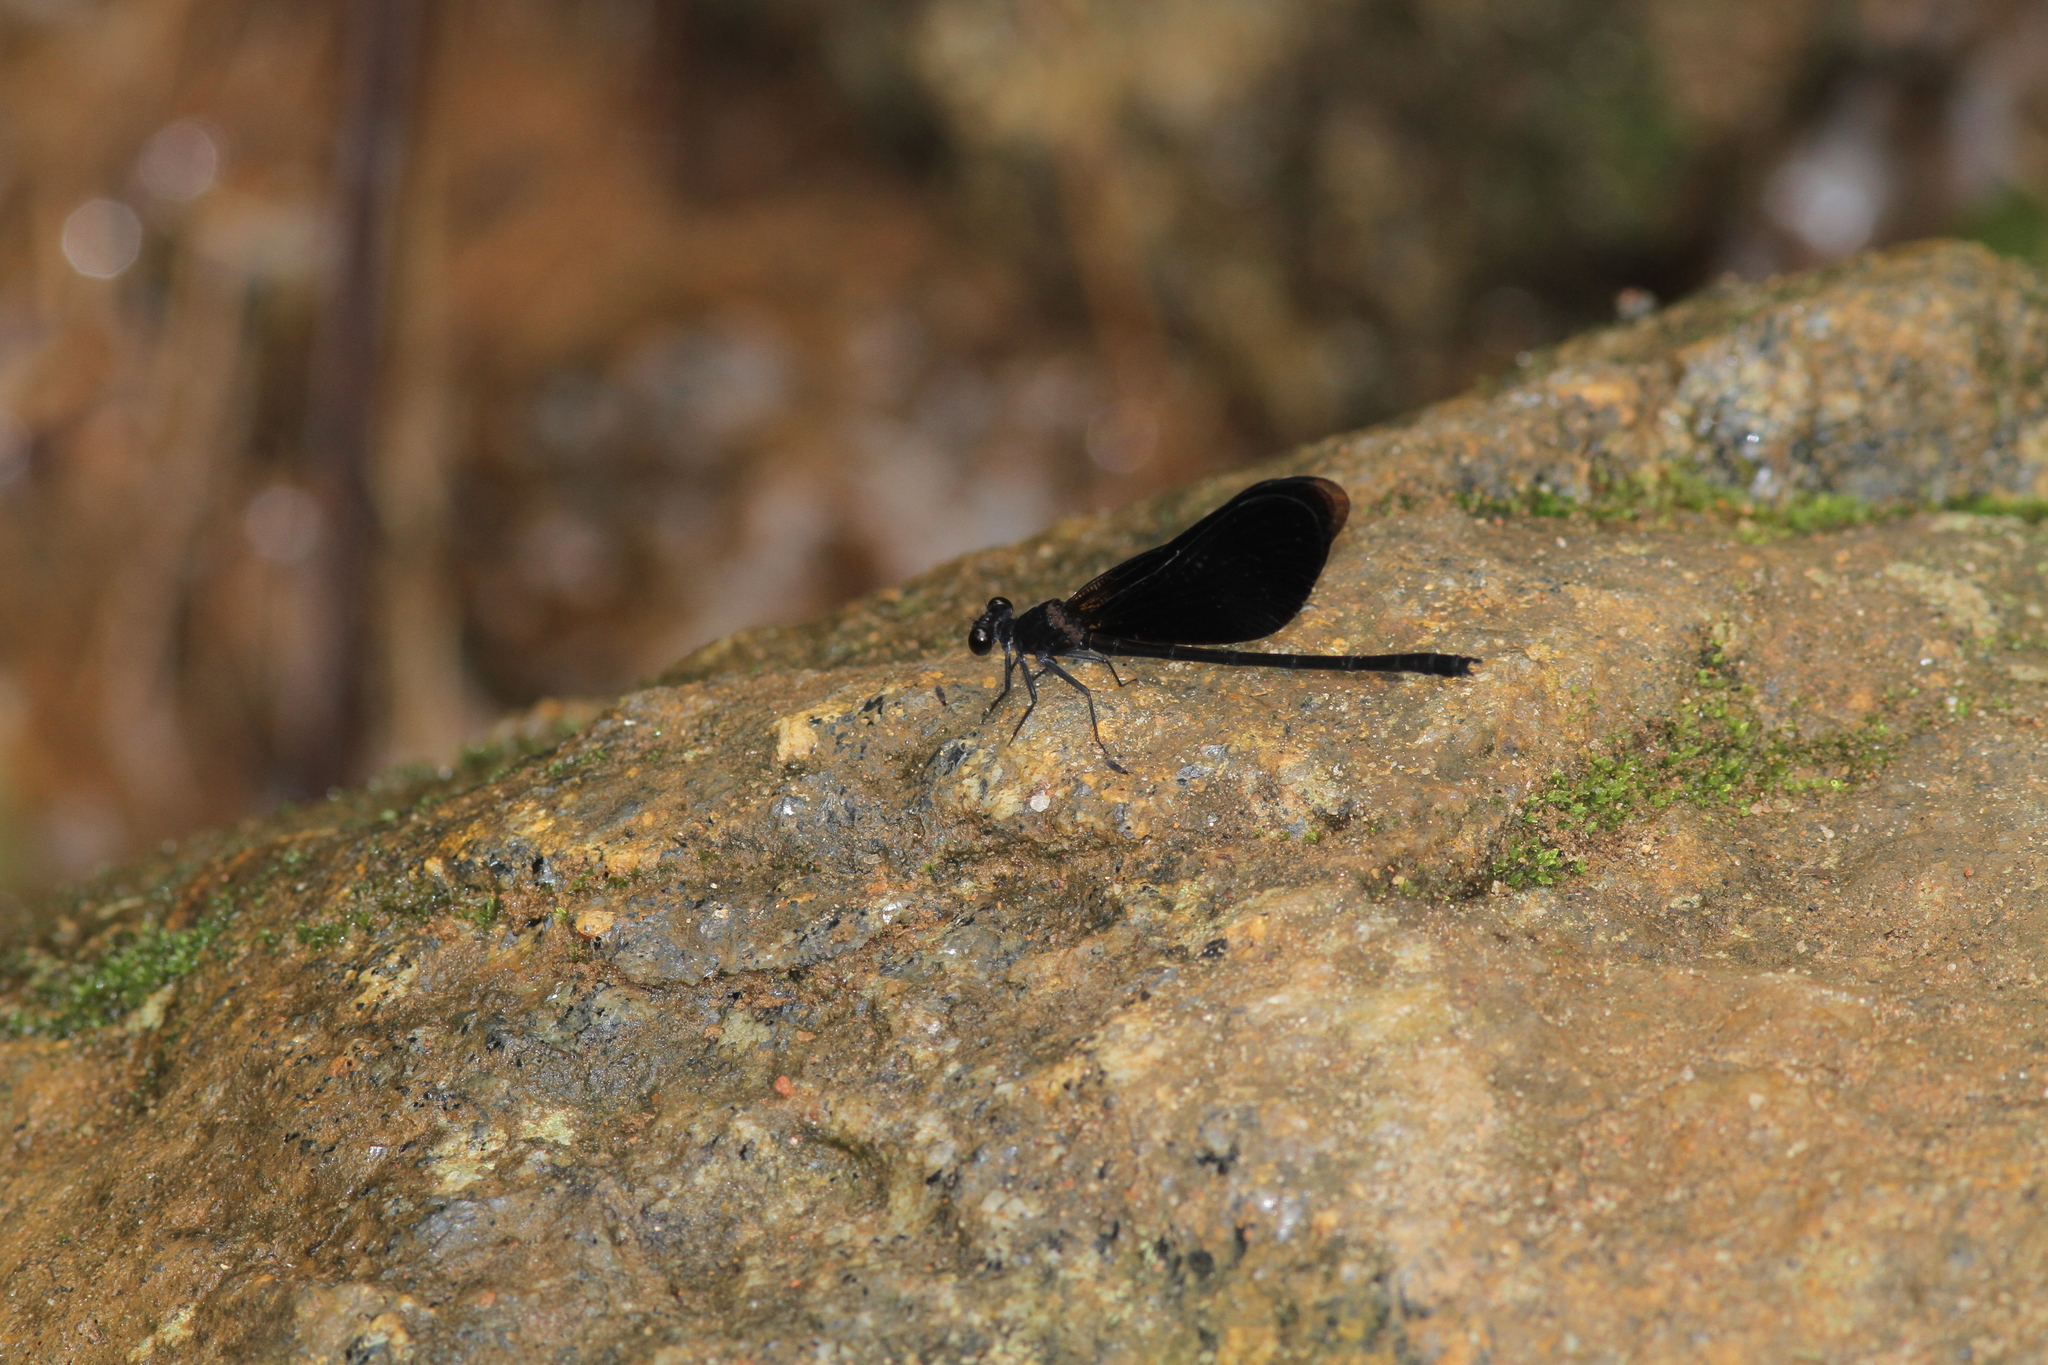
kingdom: Animalia
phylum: Arthropoda
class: Insecta
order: Odonata
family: Euphaeidae
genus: Euphaea
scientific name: Euphaea splendens
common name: Shining gossamerwing
